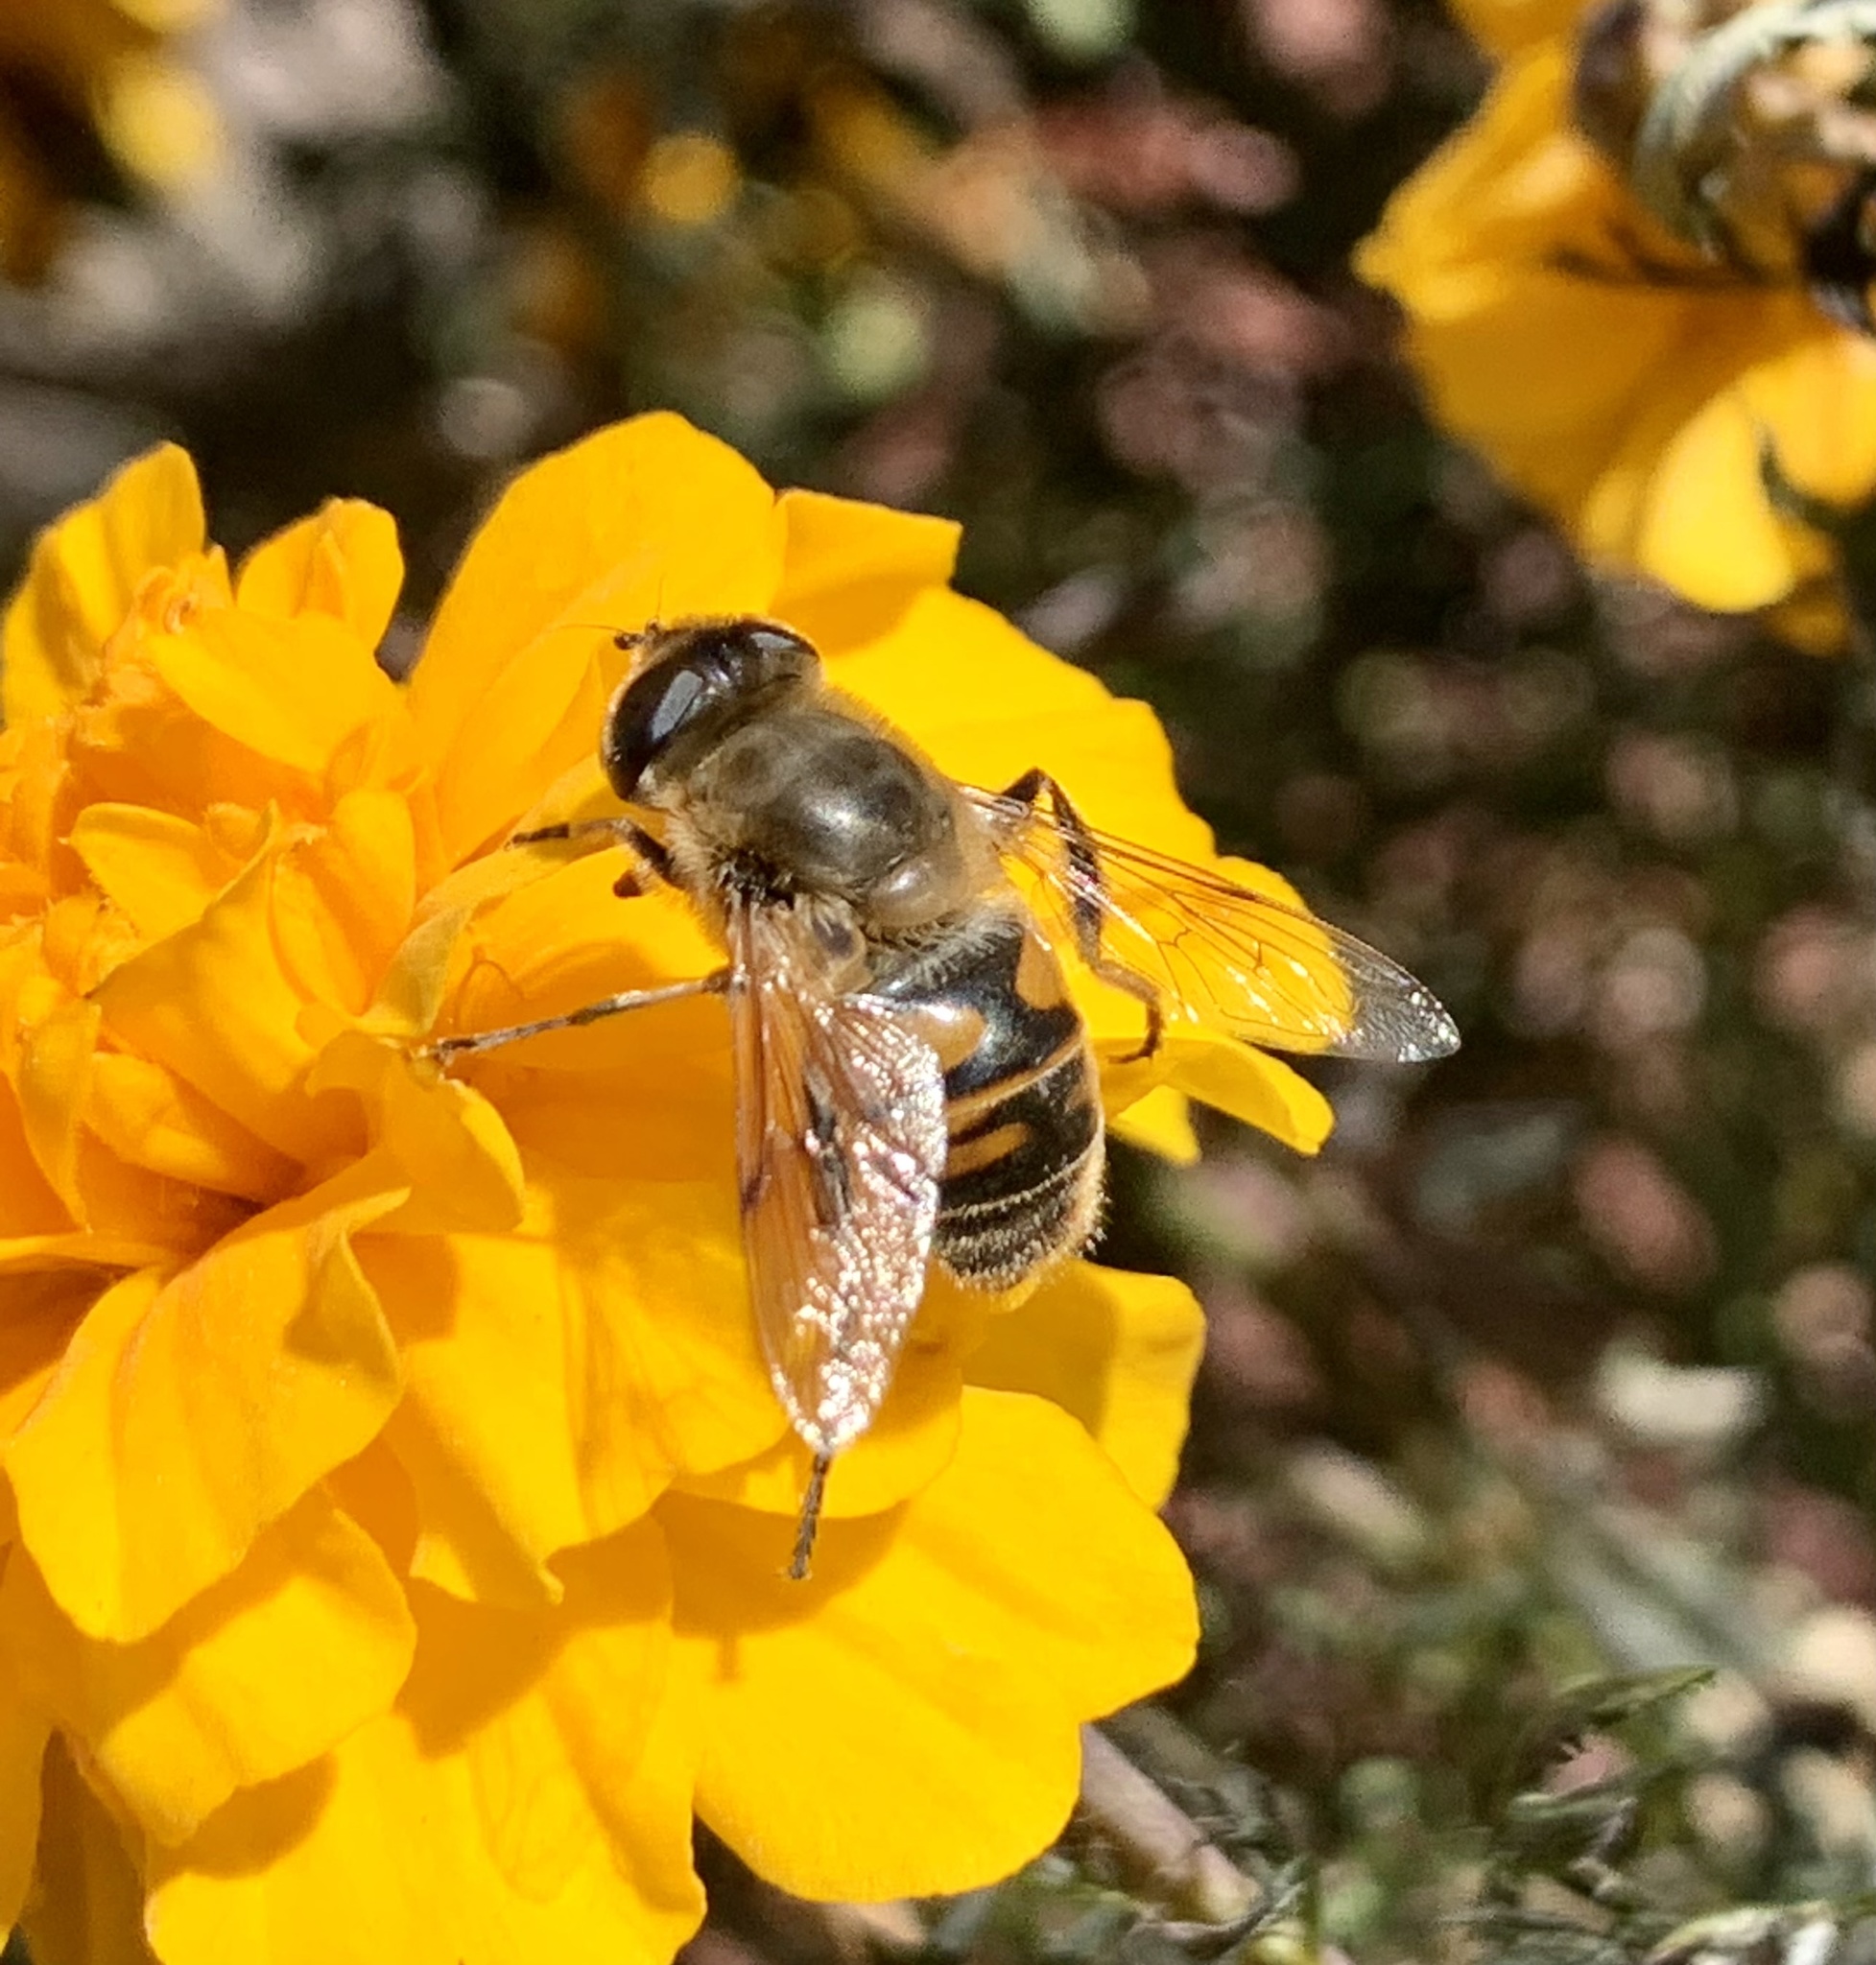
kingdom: Animalia
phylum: Arthropoda
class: Insecta
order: Diptera
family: Syrphidae
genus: Eristalis
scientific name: Eristalis tenax
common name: Drone fly
